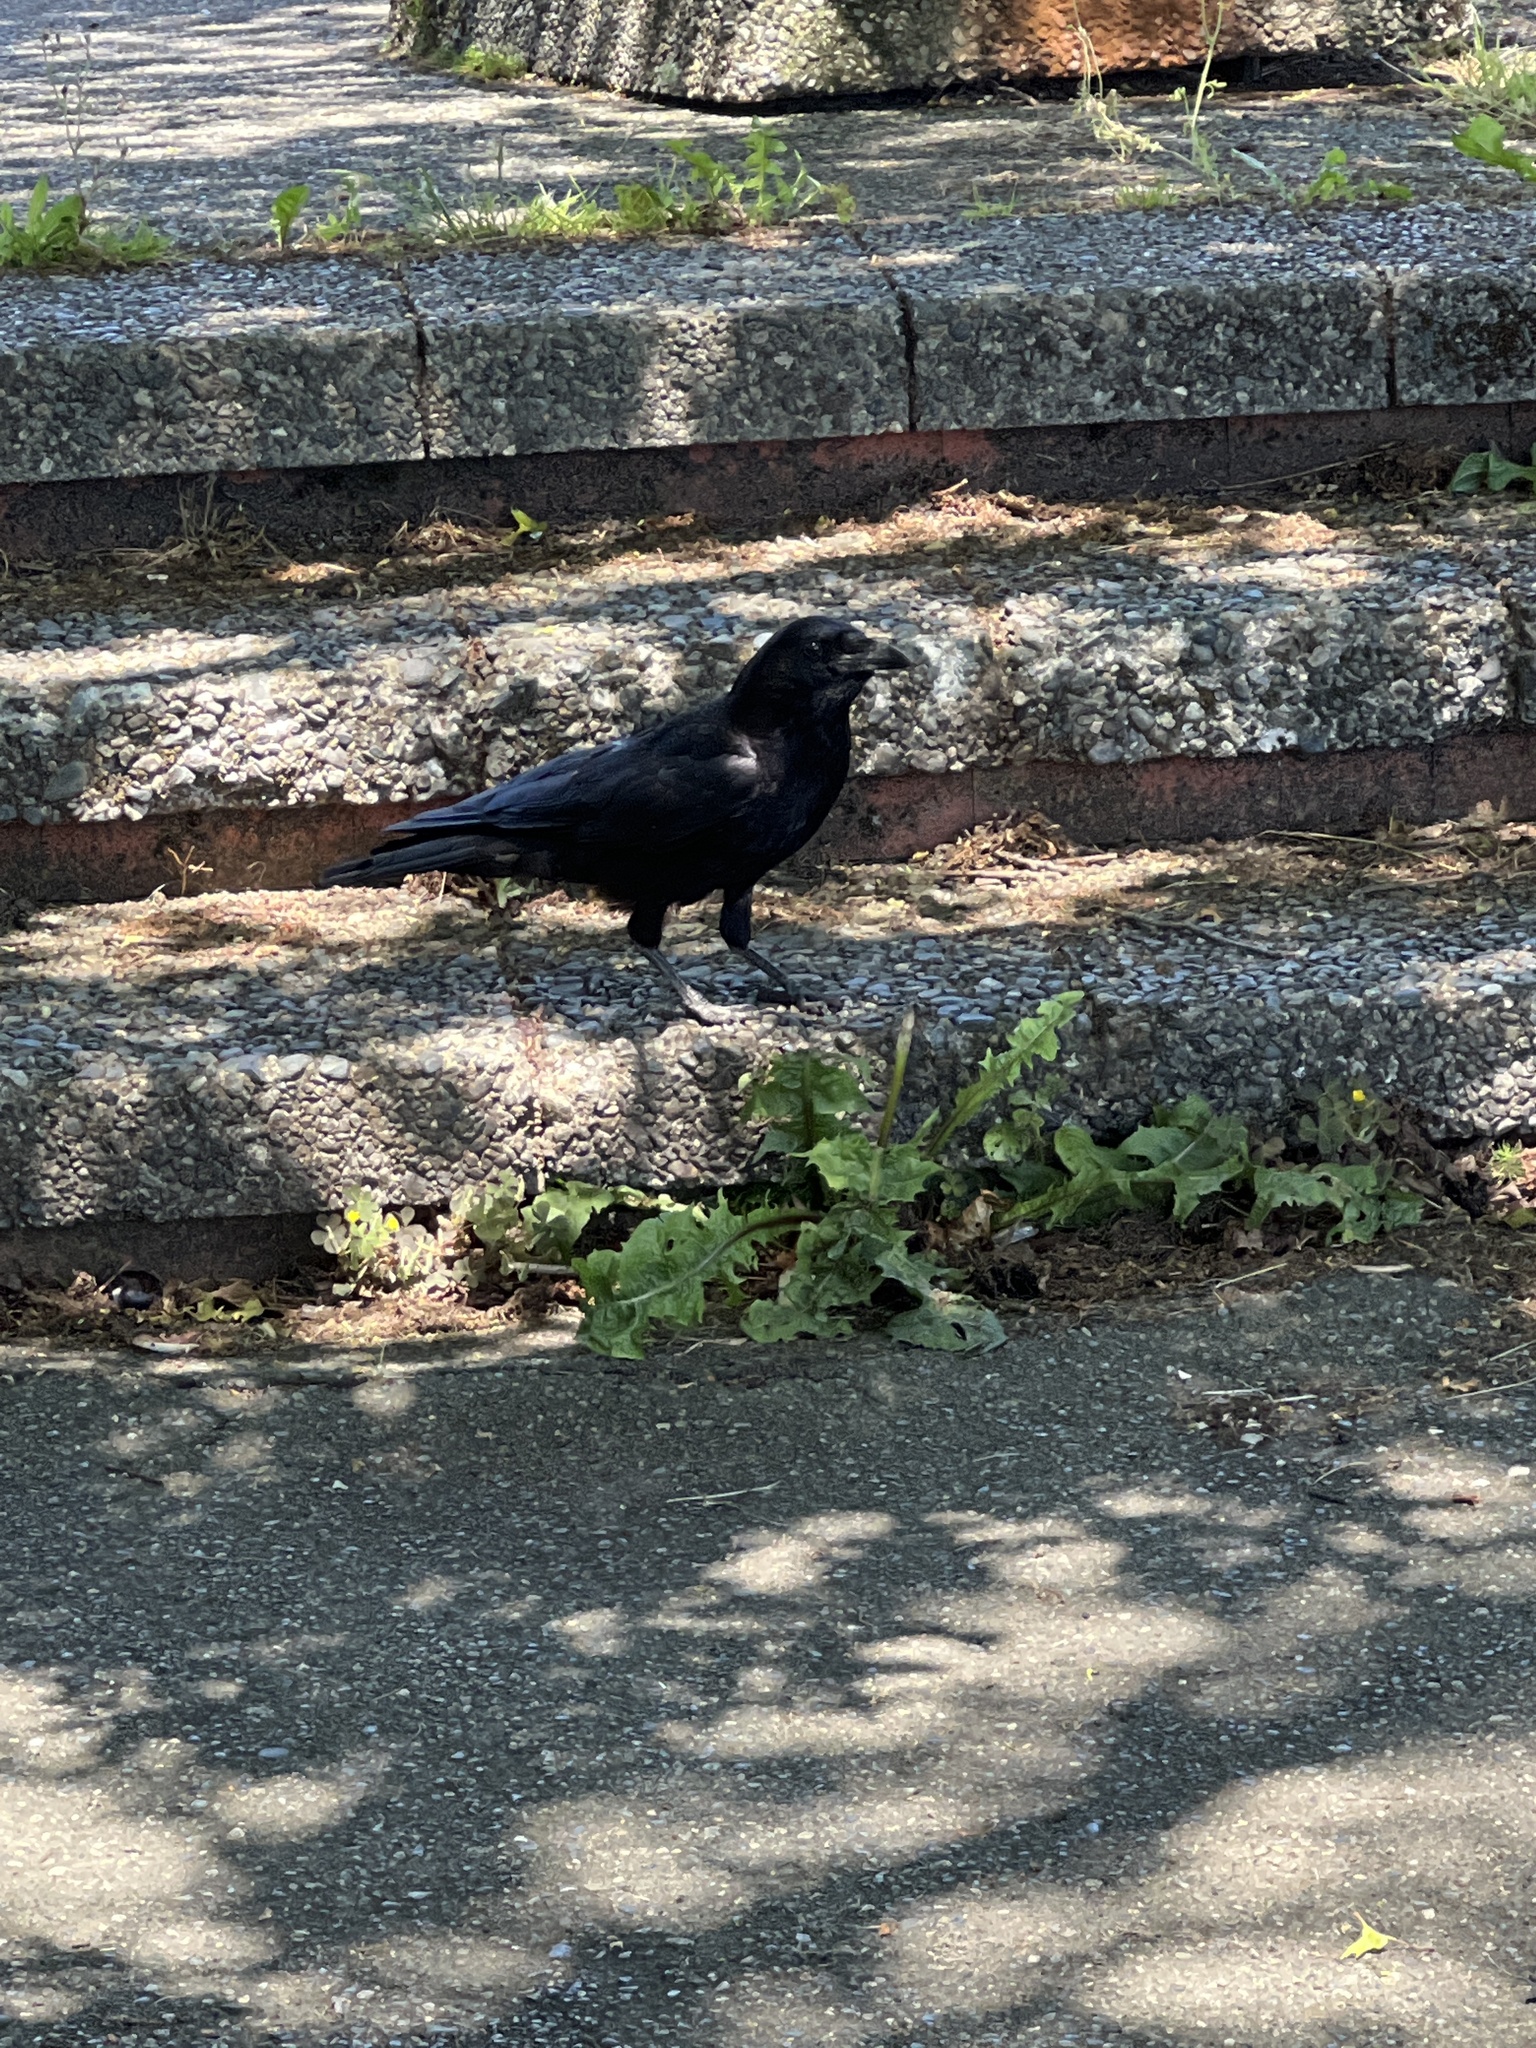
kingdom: Animalia
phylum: Chordata
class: Aves
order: Passeriformes
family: Corvidae
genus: Corvus
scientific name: Corvus brachyrhynchos
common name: American crow
